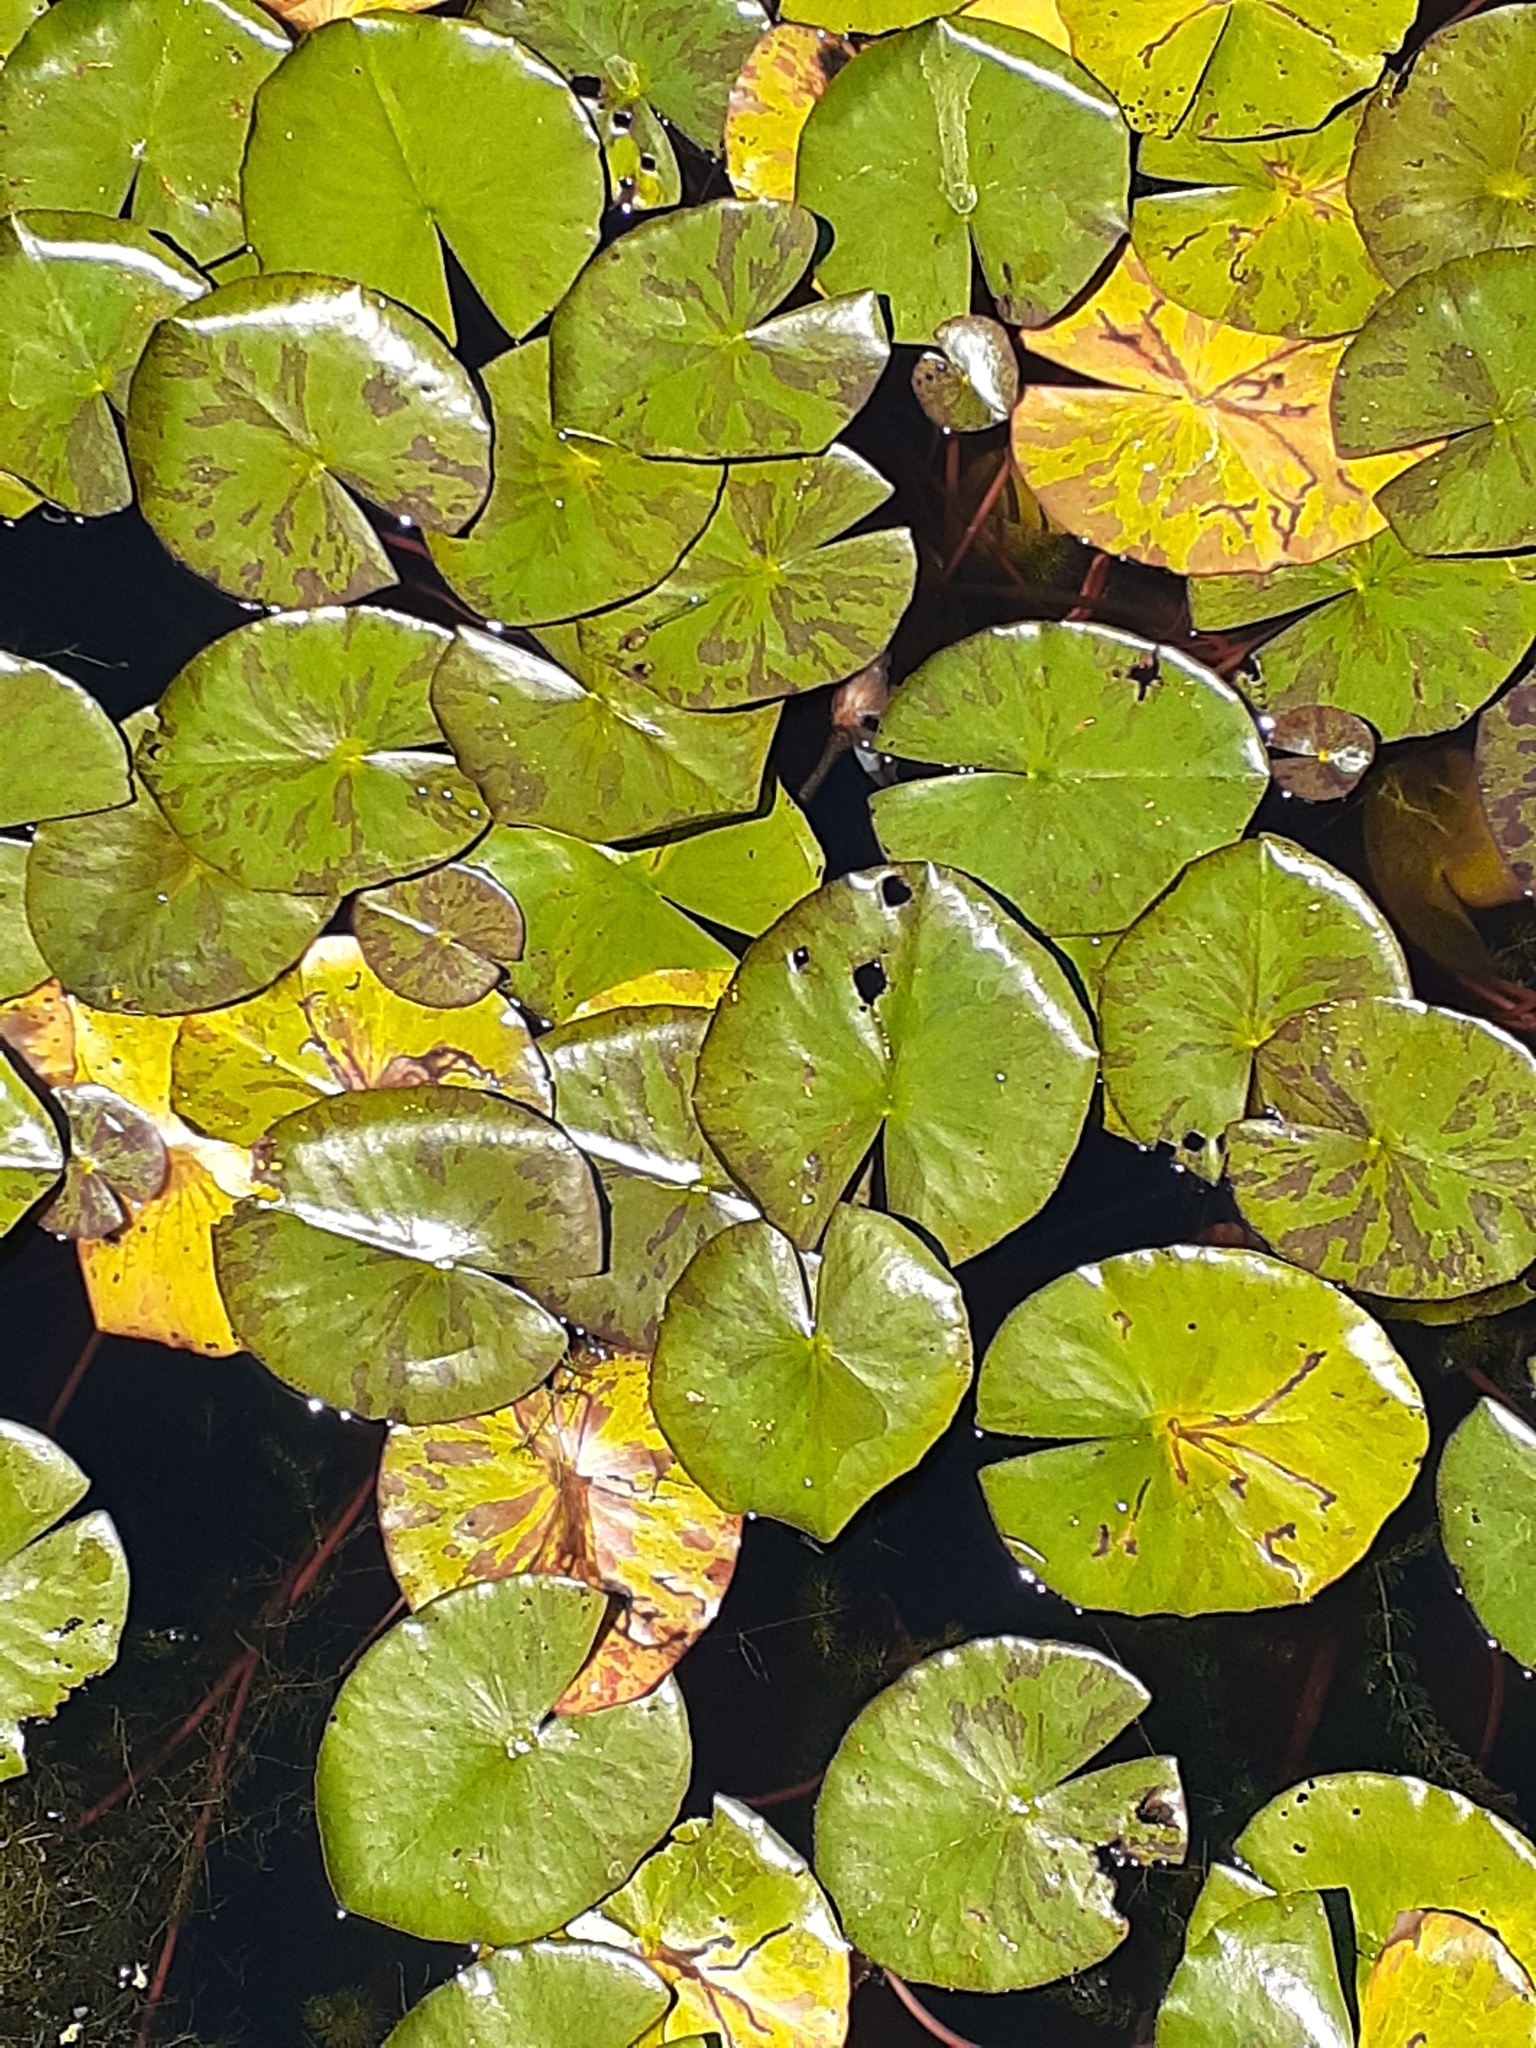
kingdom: Plantae
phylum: Tracheophyta
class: Magnoliopsida
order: Nymphaeales
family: Nymphaeaceae
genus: Nymphaea
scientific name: Nymphaea odorata
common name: Fragrant water-lily
